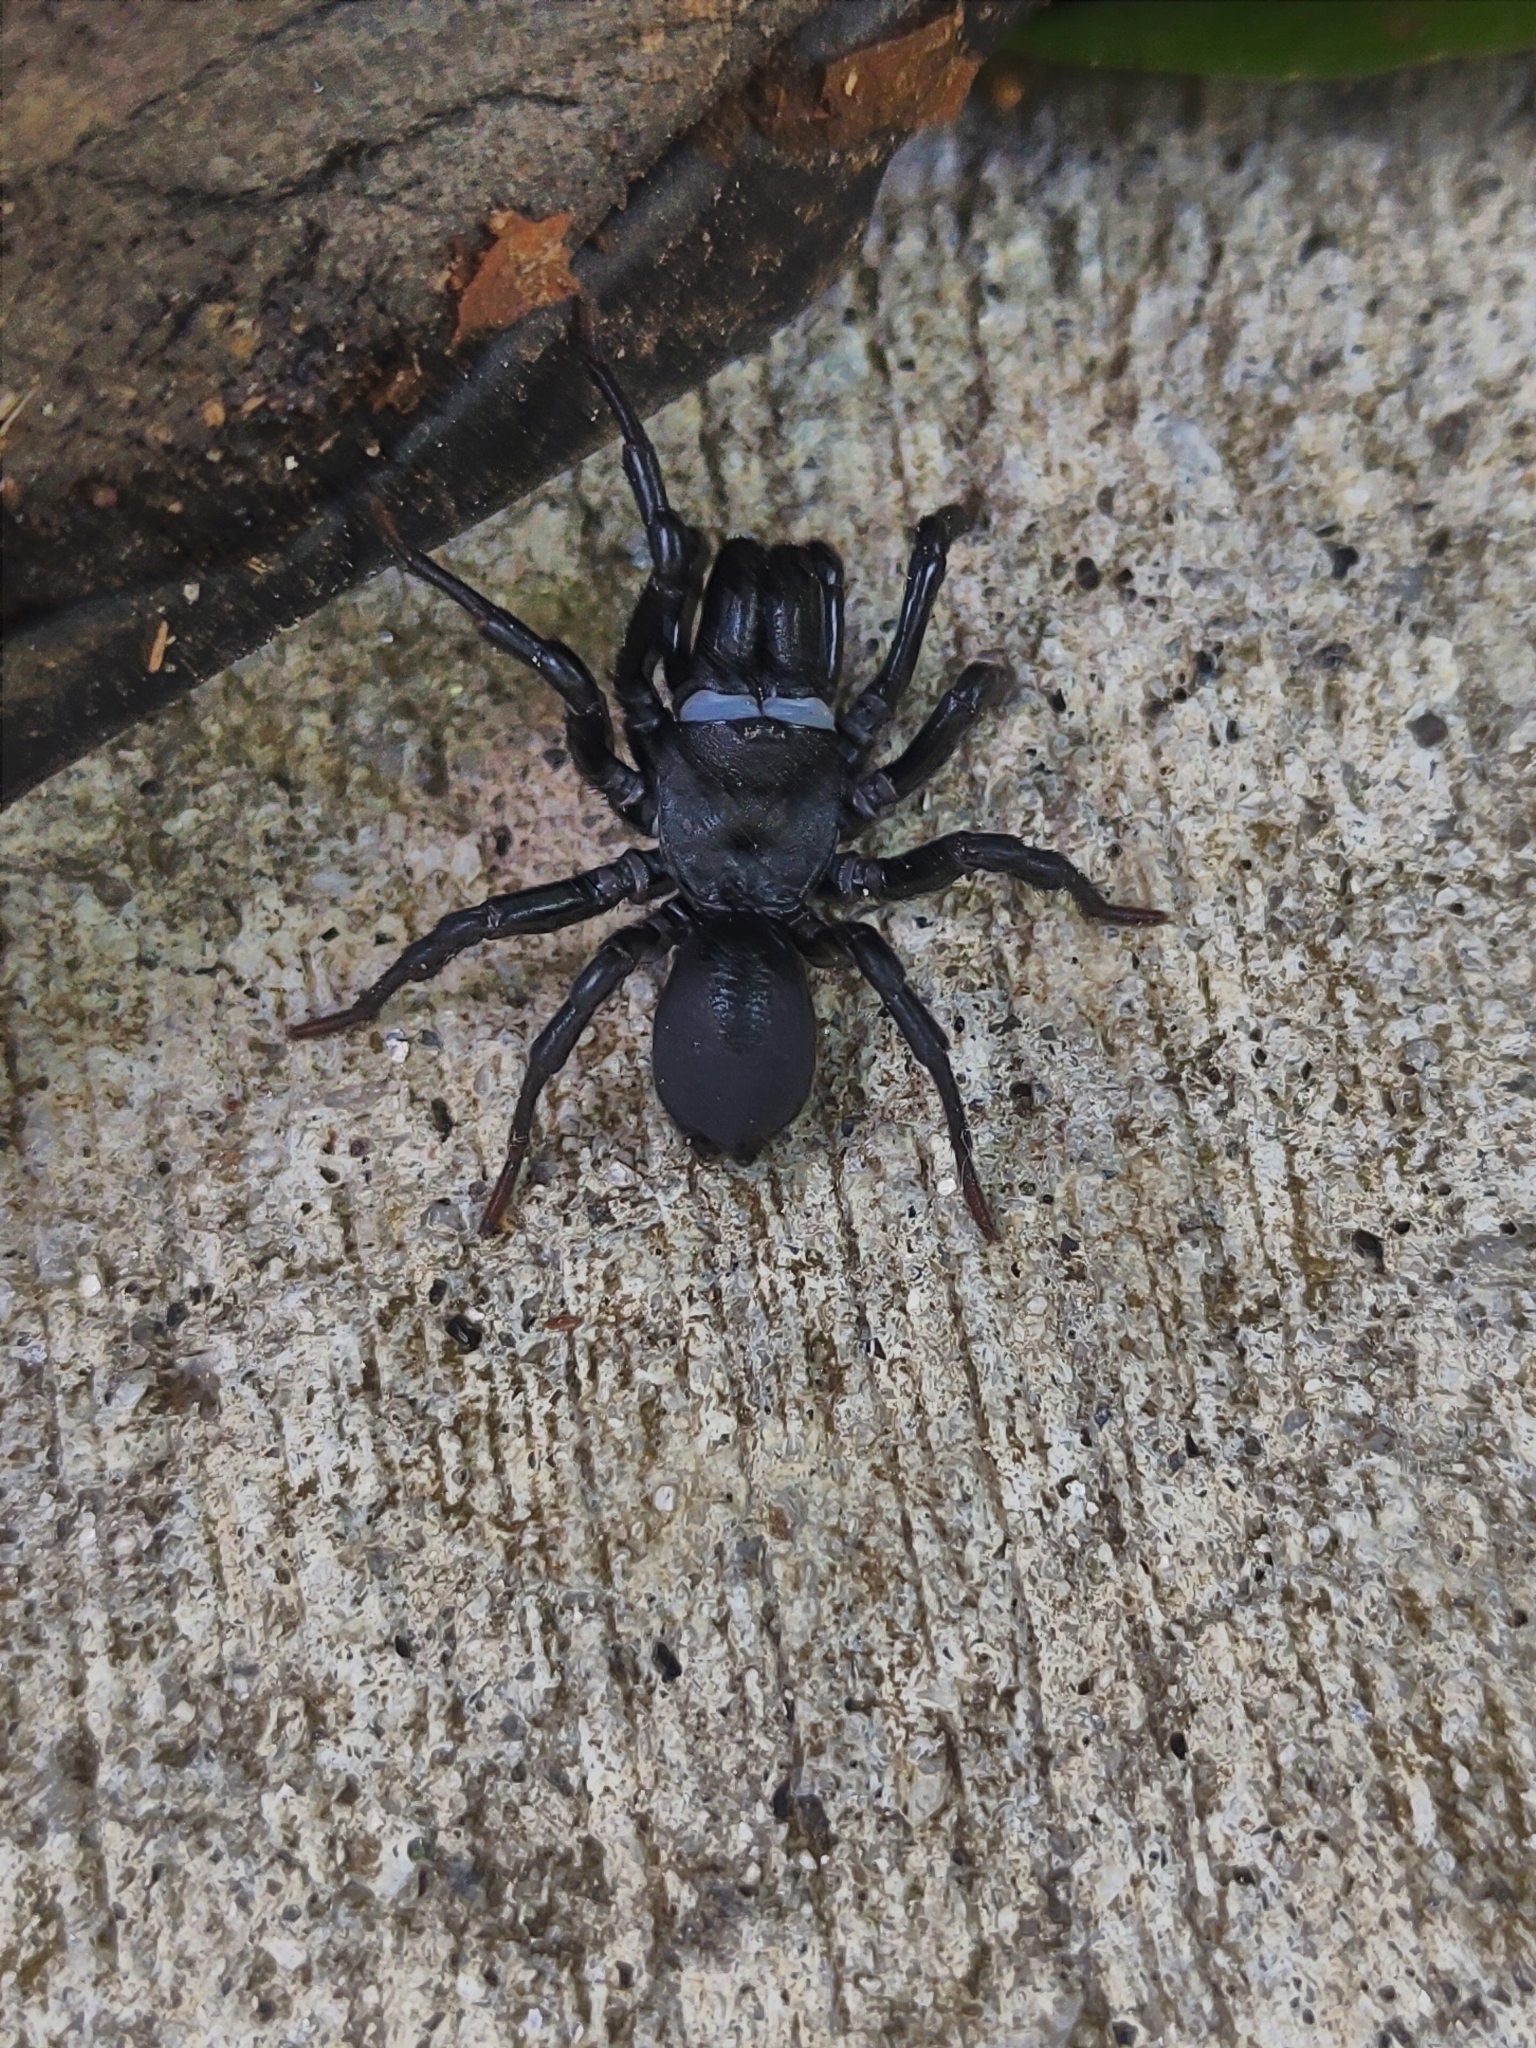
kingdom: Animalia
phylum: Arthropoda
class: Arachnida
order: Araneae
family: Atypidae
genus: Sphodros
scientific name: Sphodros niger
